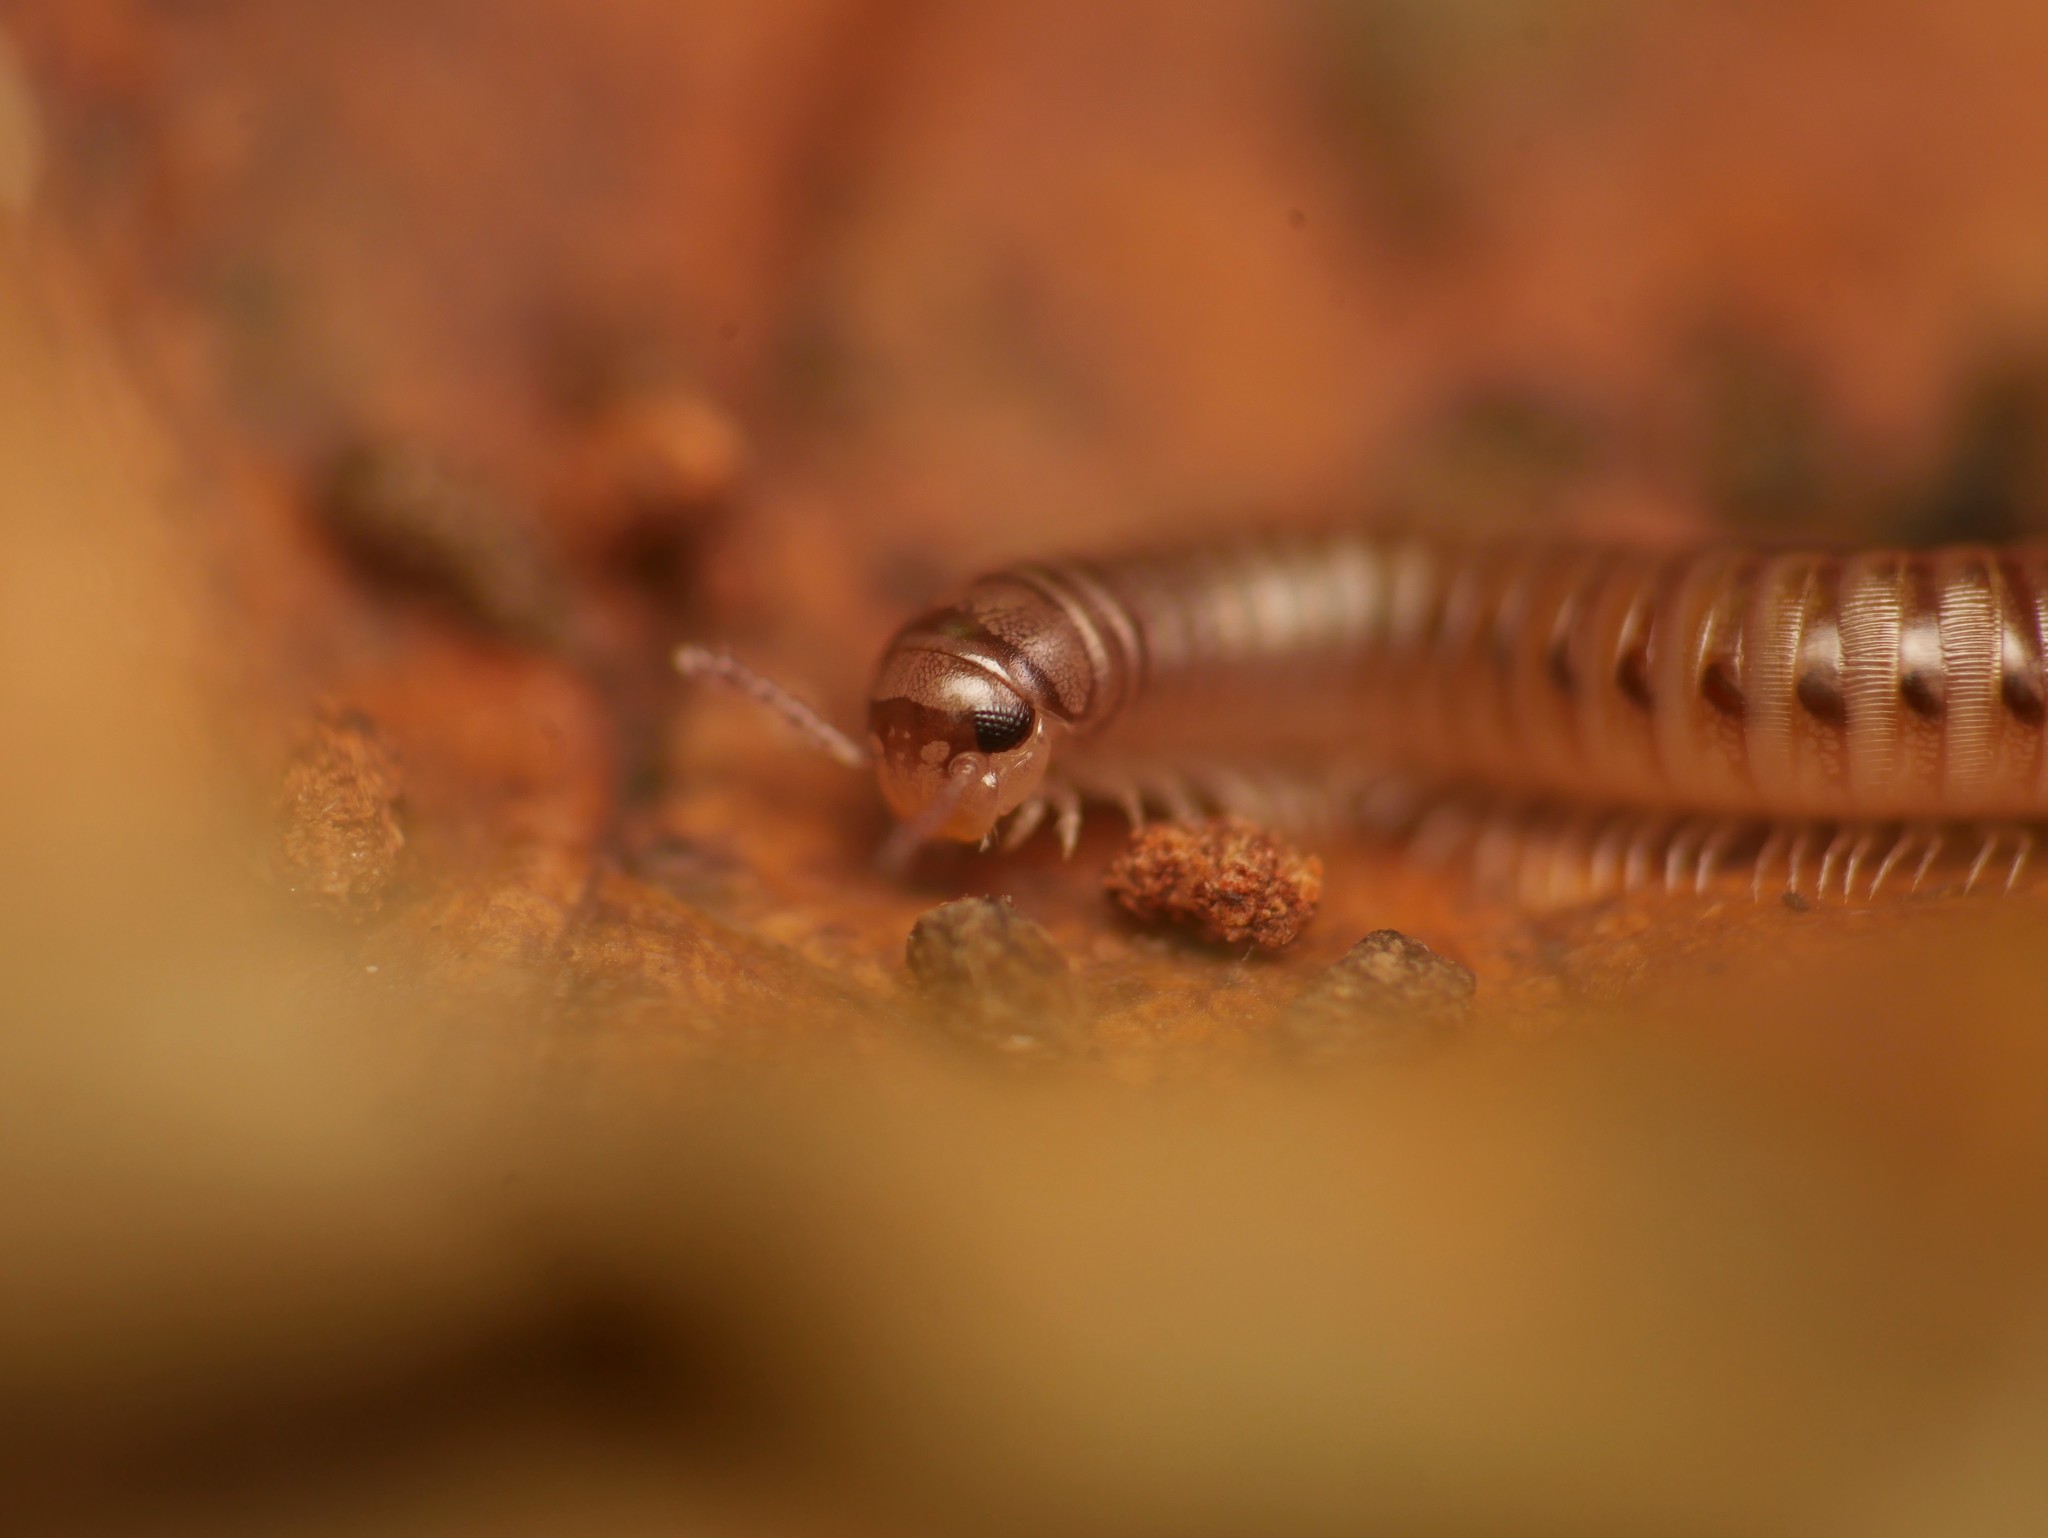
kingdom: Animalia
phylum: Arthropoda
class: Diplopoda
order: Julida
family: Julidae
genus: Cylindroiulus
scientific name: Cylindroiulus punctatus
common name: Blunt-tailed millipede
